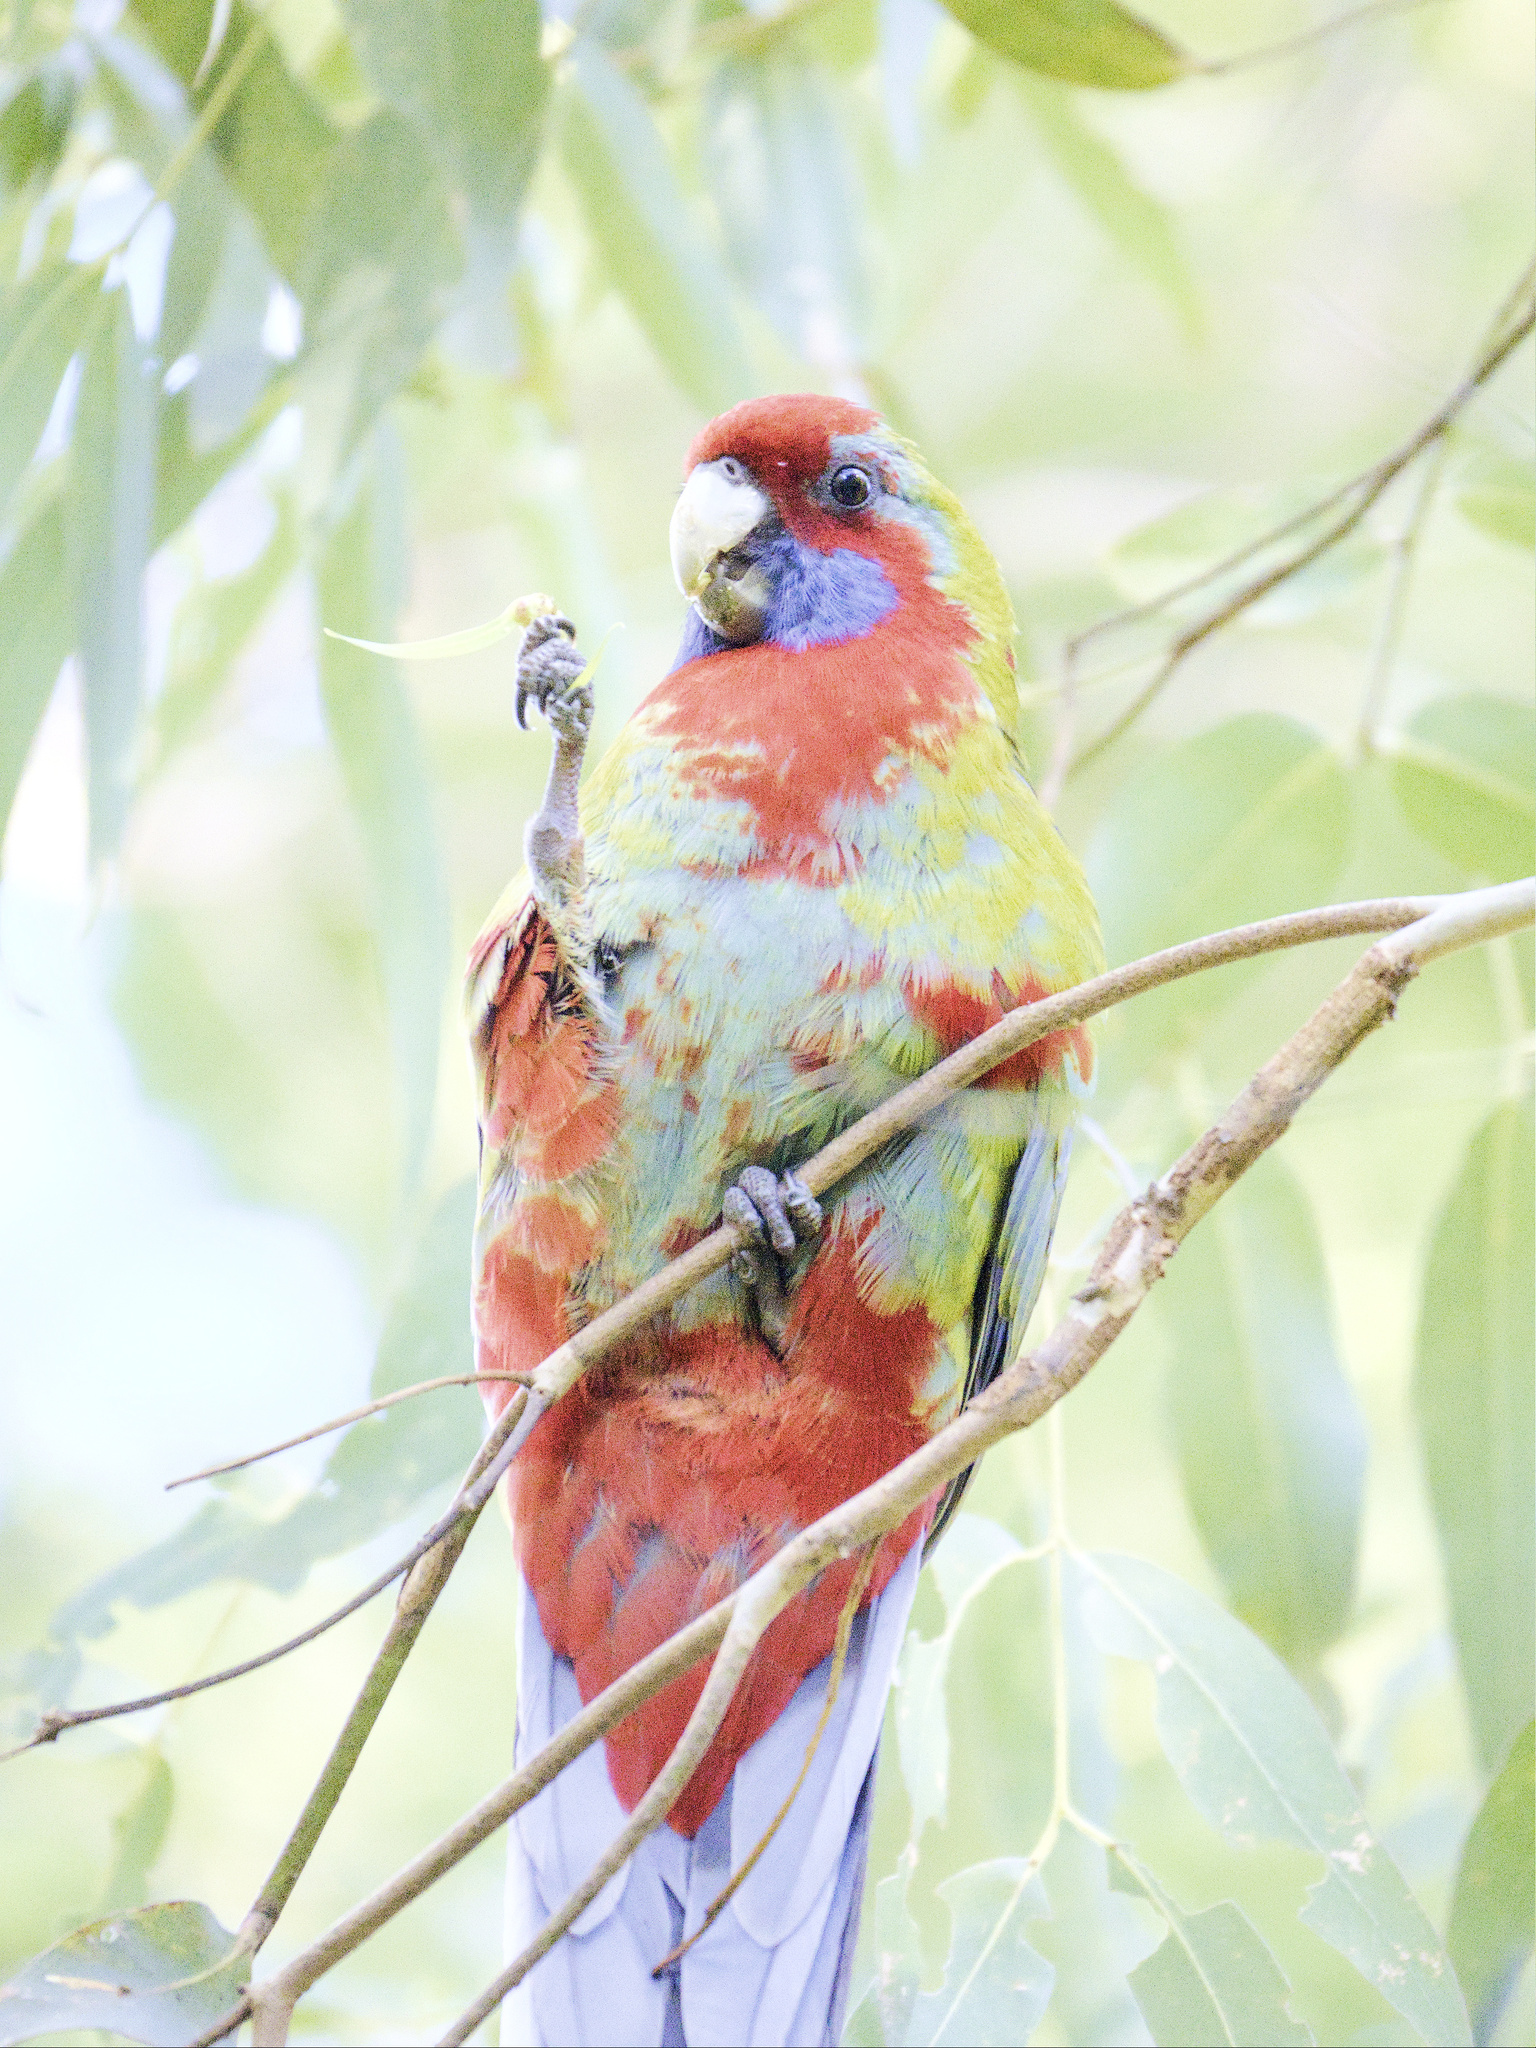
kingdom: Animalia
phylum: Chordata
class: Aves
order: Psittaciformes
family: Psittacidae
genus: Platycercus
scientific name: Platycercus elegans
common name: Crimson rosella
